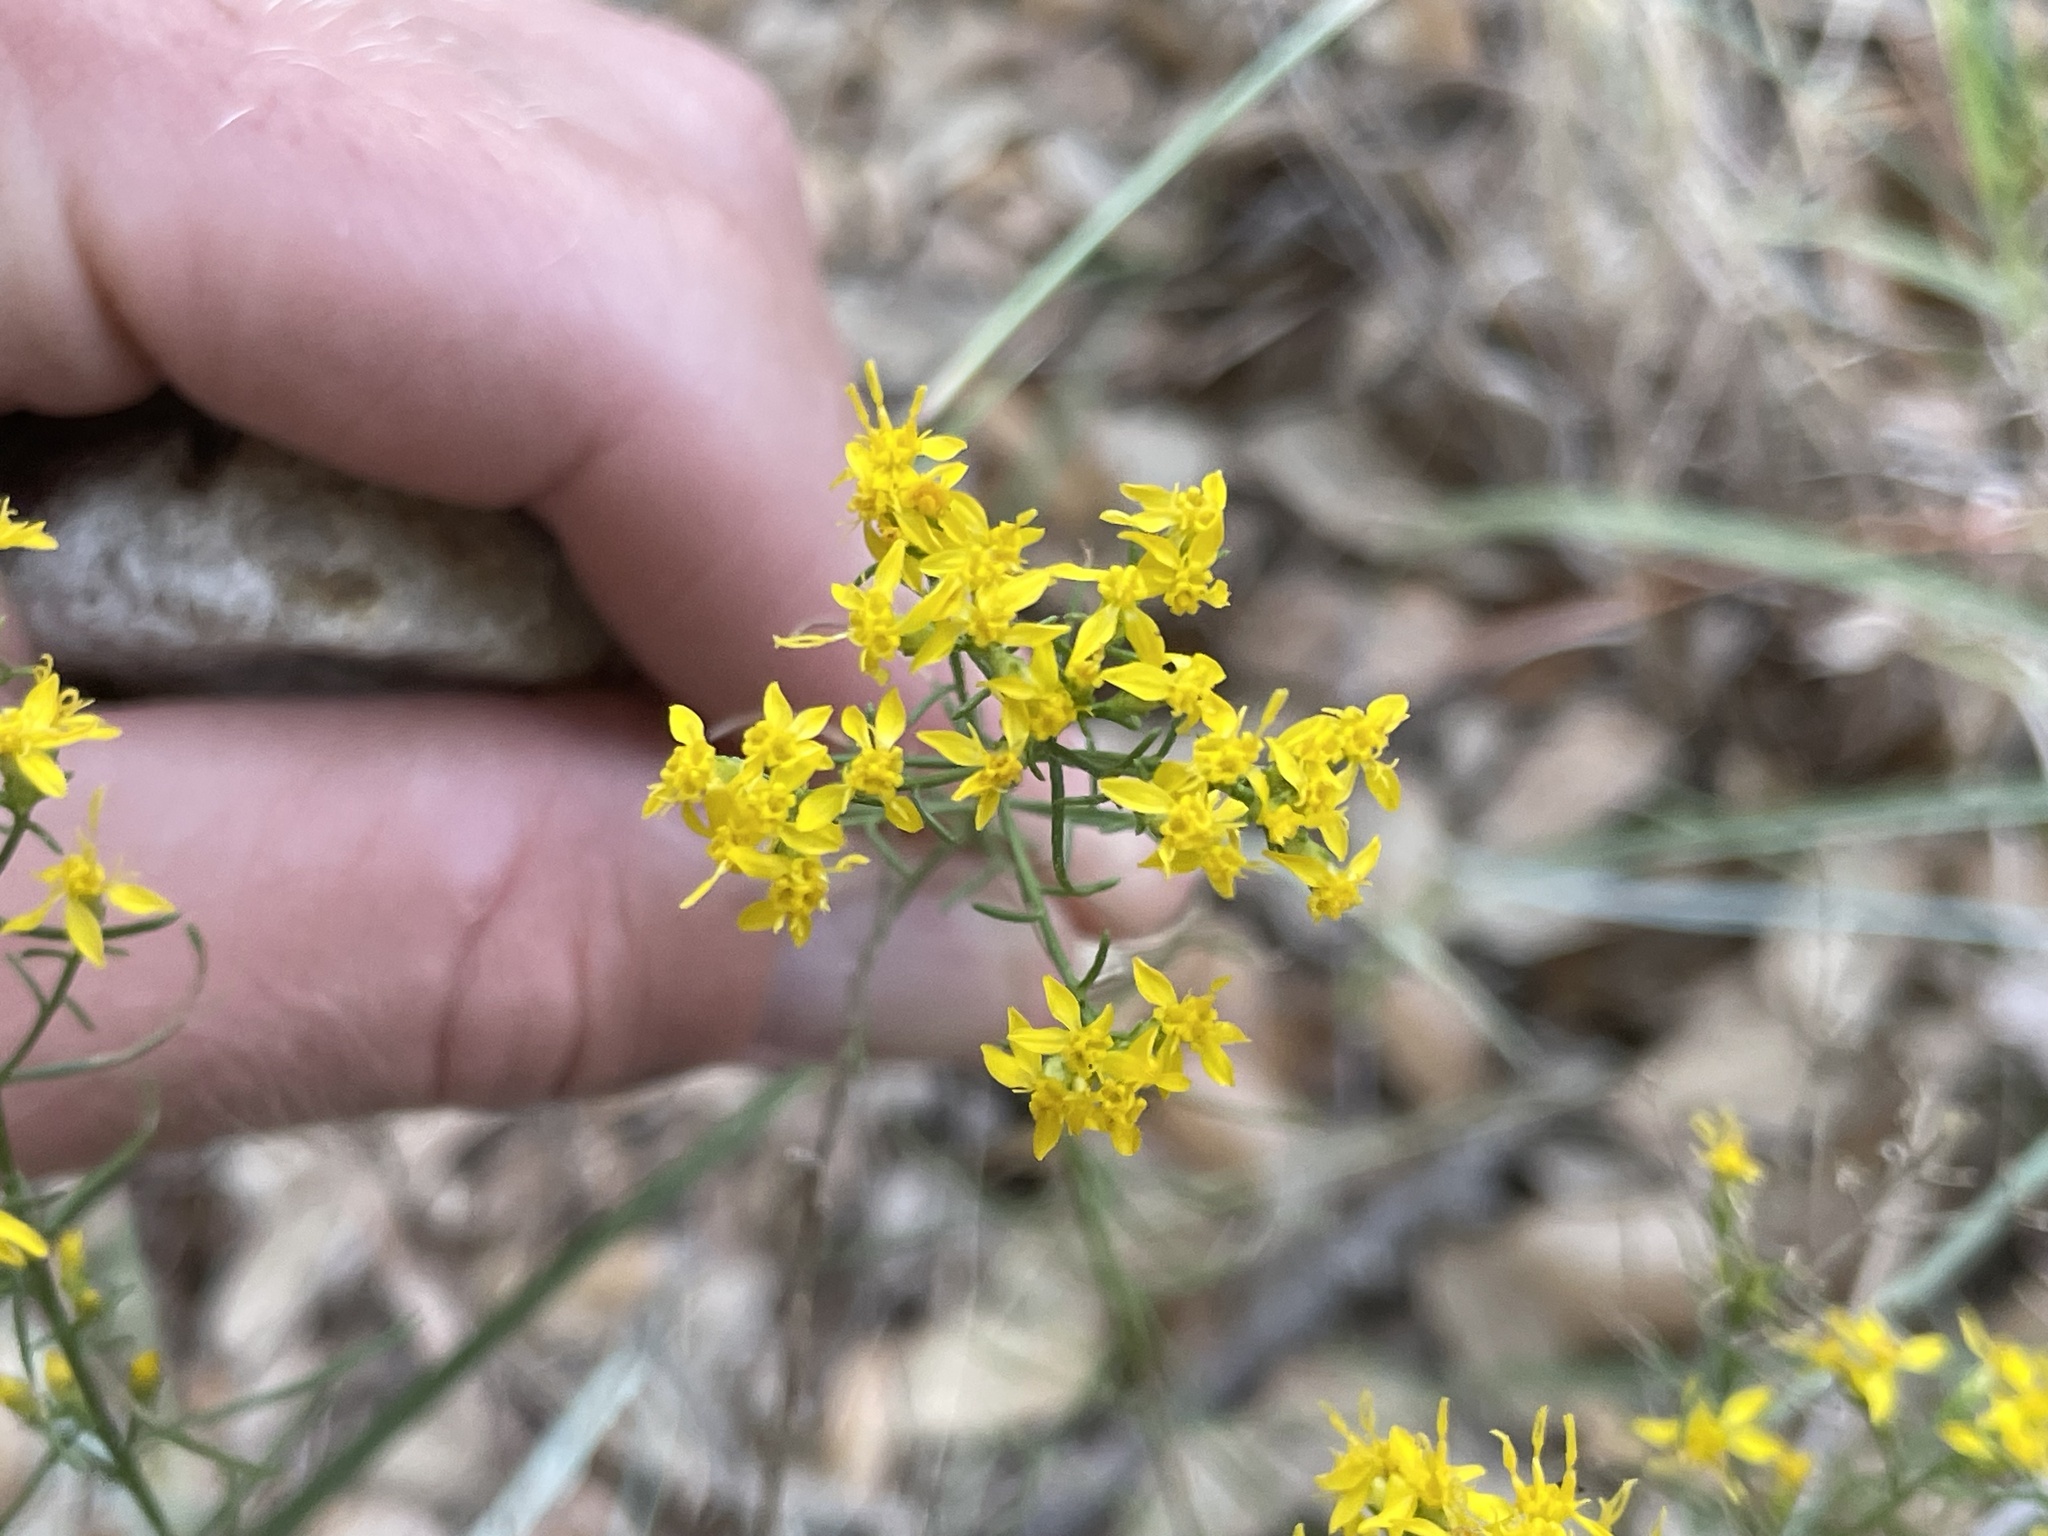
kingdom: Plantae
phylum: Tracheophyta
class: Magnoliopsida
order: Asterales
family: Asteraceae
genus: Gutierrezia
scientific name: Gutierrezia sarothrae
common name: Broom snakeweed
